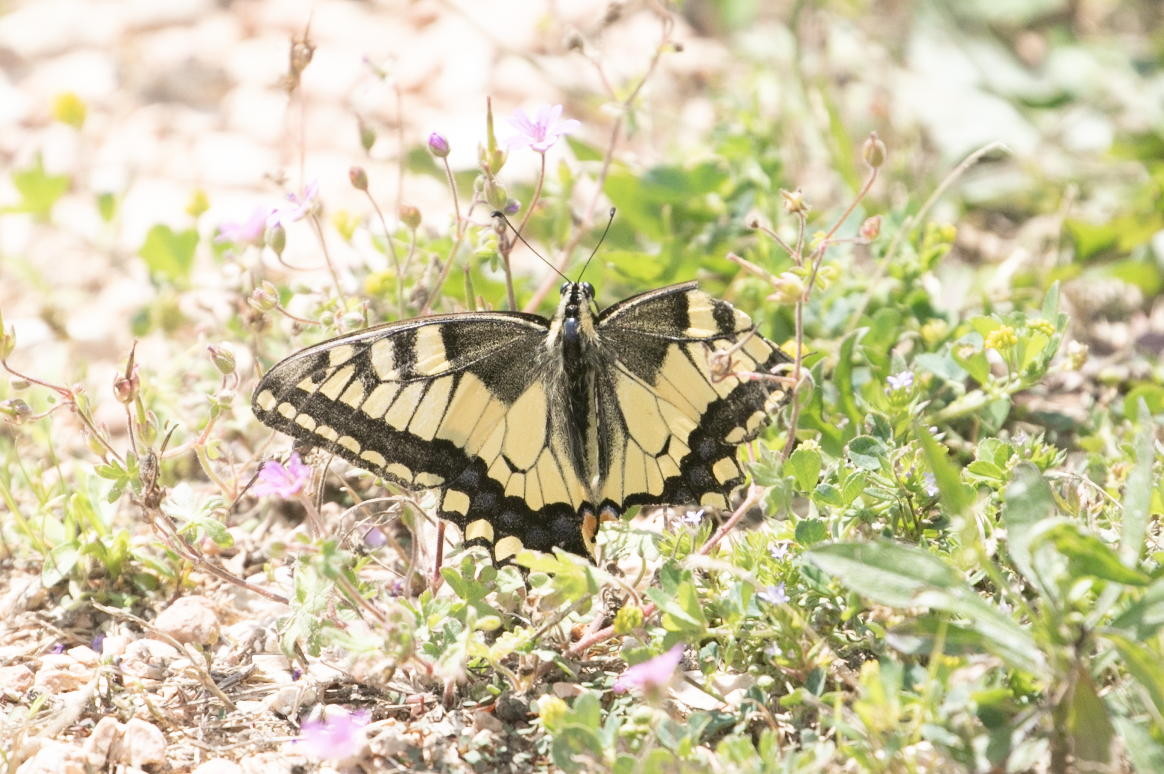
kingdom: Animalia
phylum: Arthropoda
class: Insecta
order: Lepidoptera
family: Papilionidae
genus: Papilio
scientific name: Papilio machaon
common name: Swallowtail
